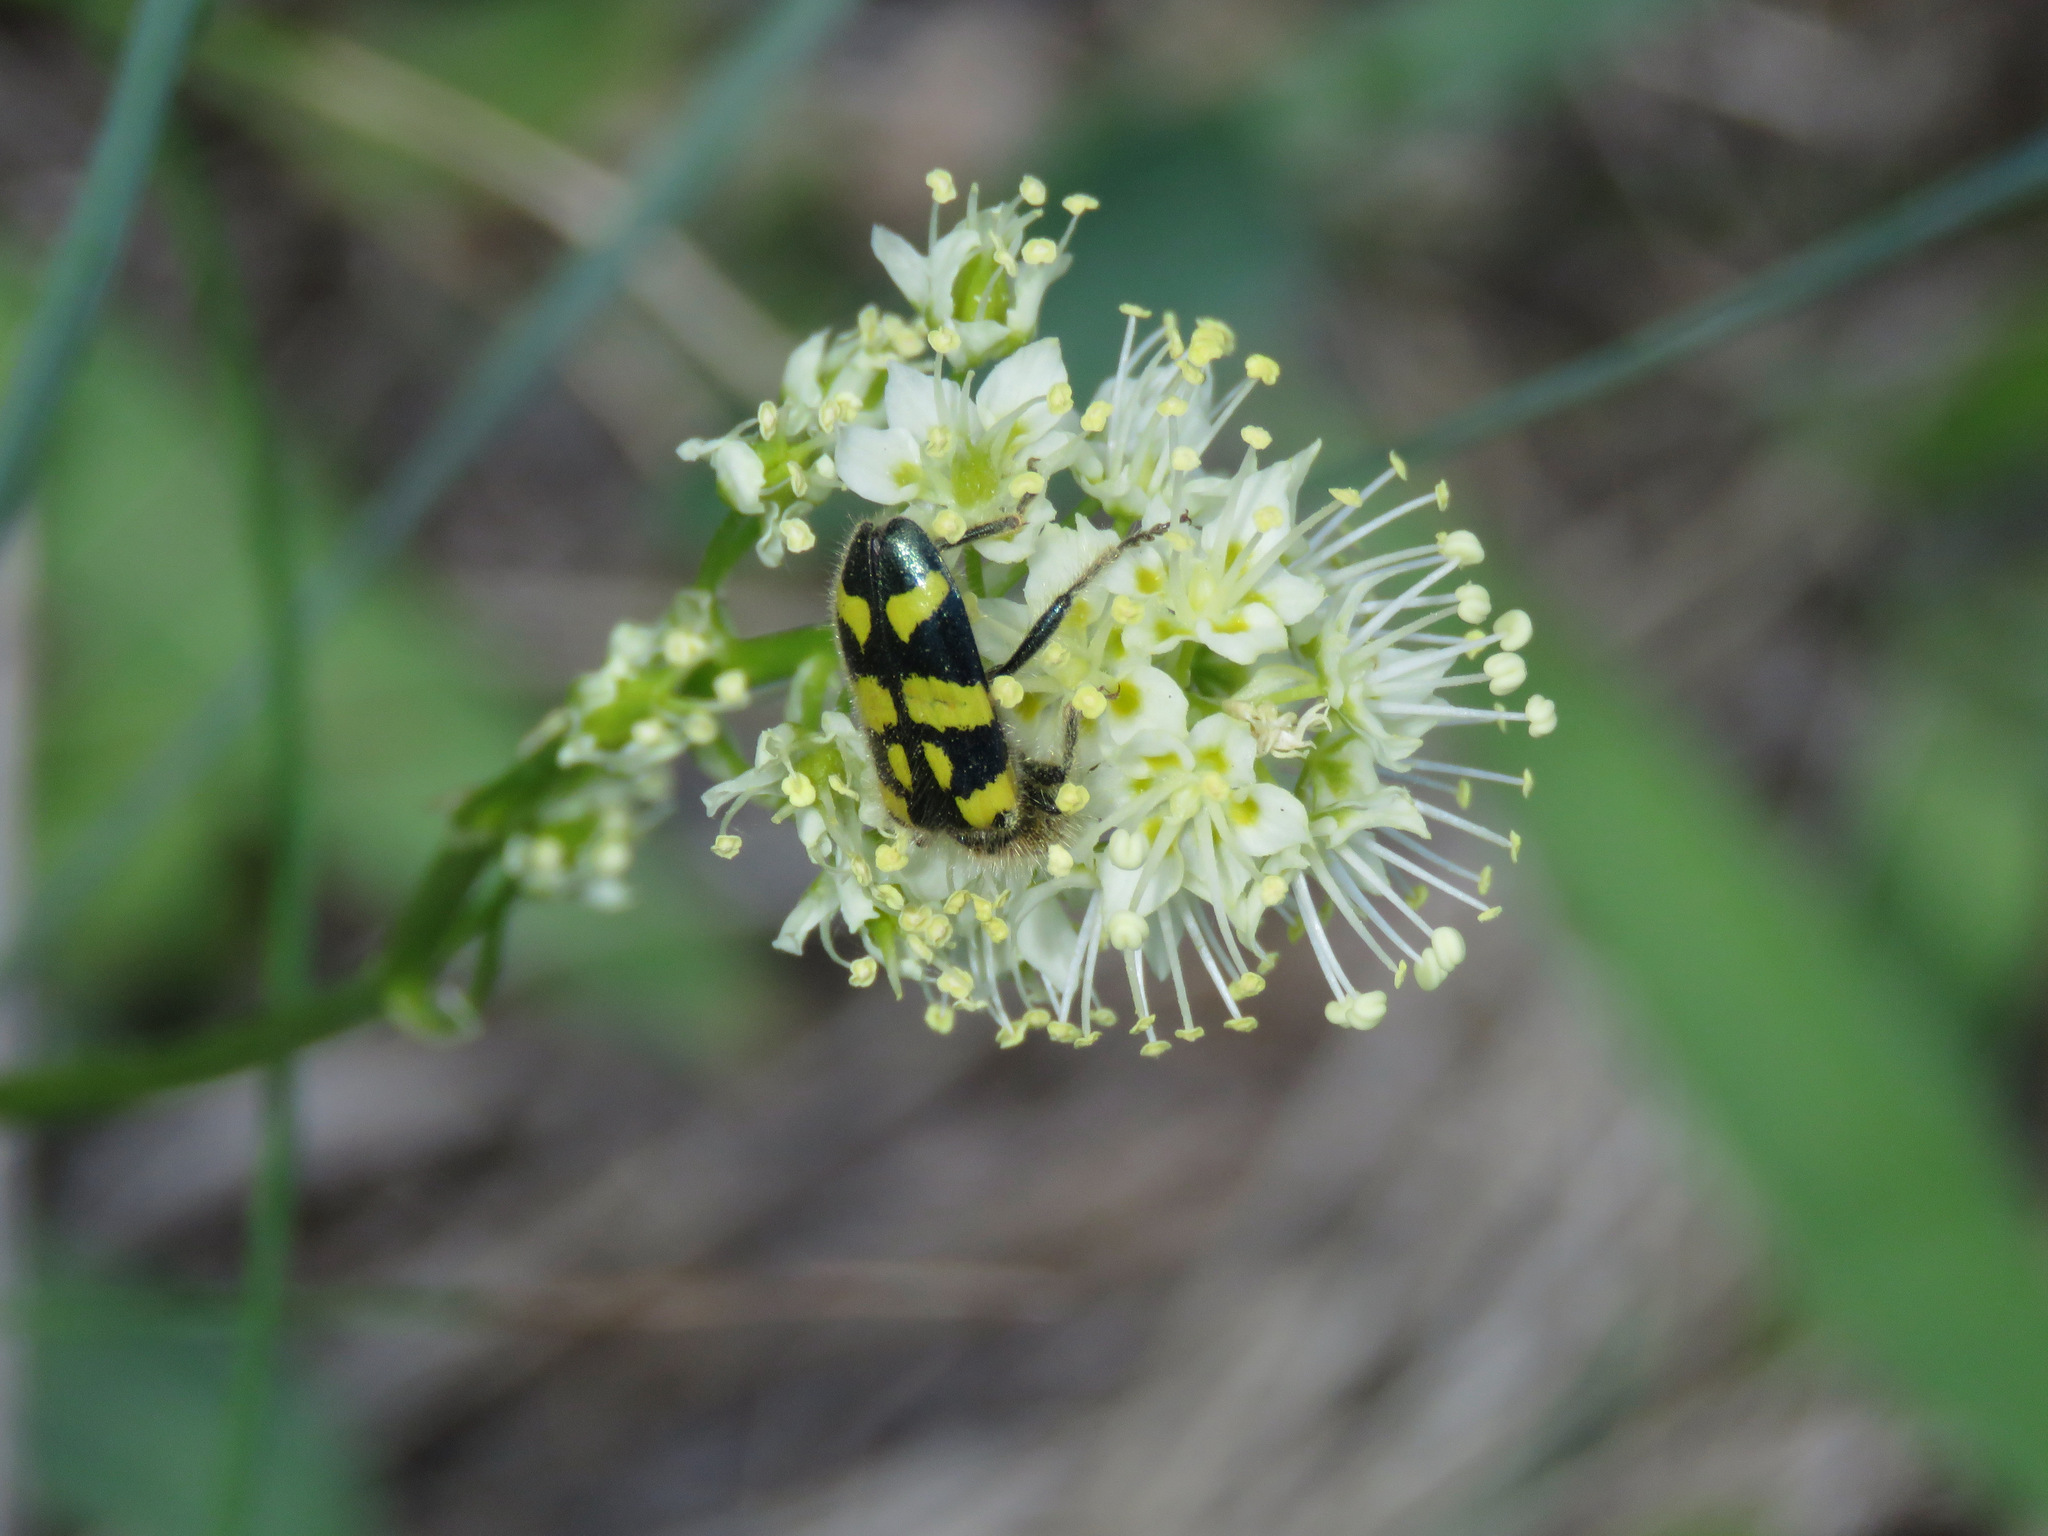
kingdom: Animalia
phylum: Arthropoda
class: Insecta
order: Coleoptera
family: Cleridae
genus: Trichodes
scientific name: Trichodes ornatus
